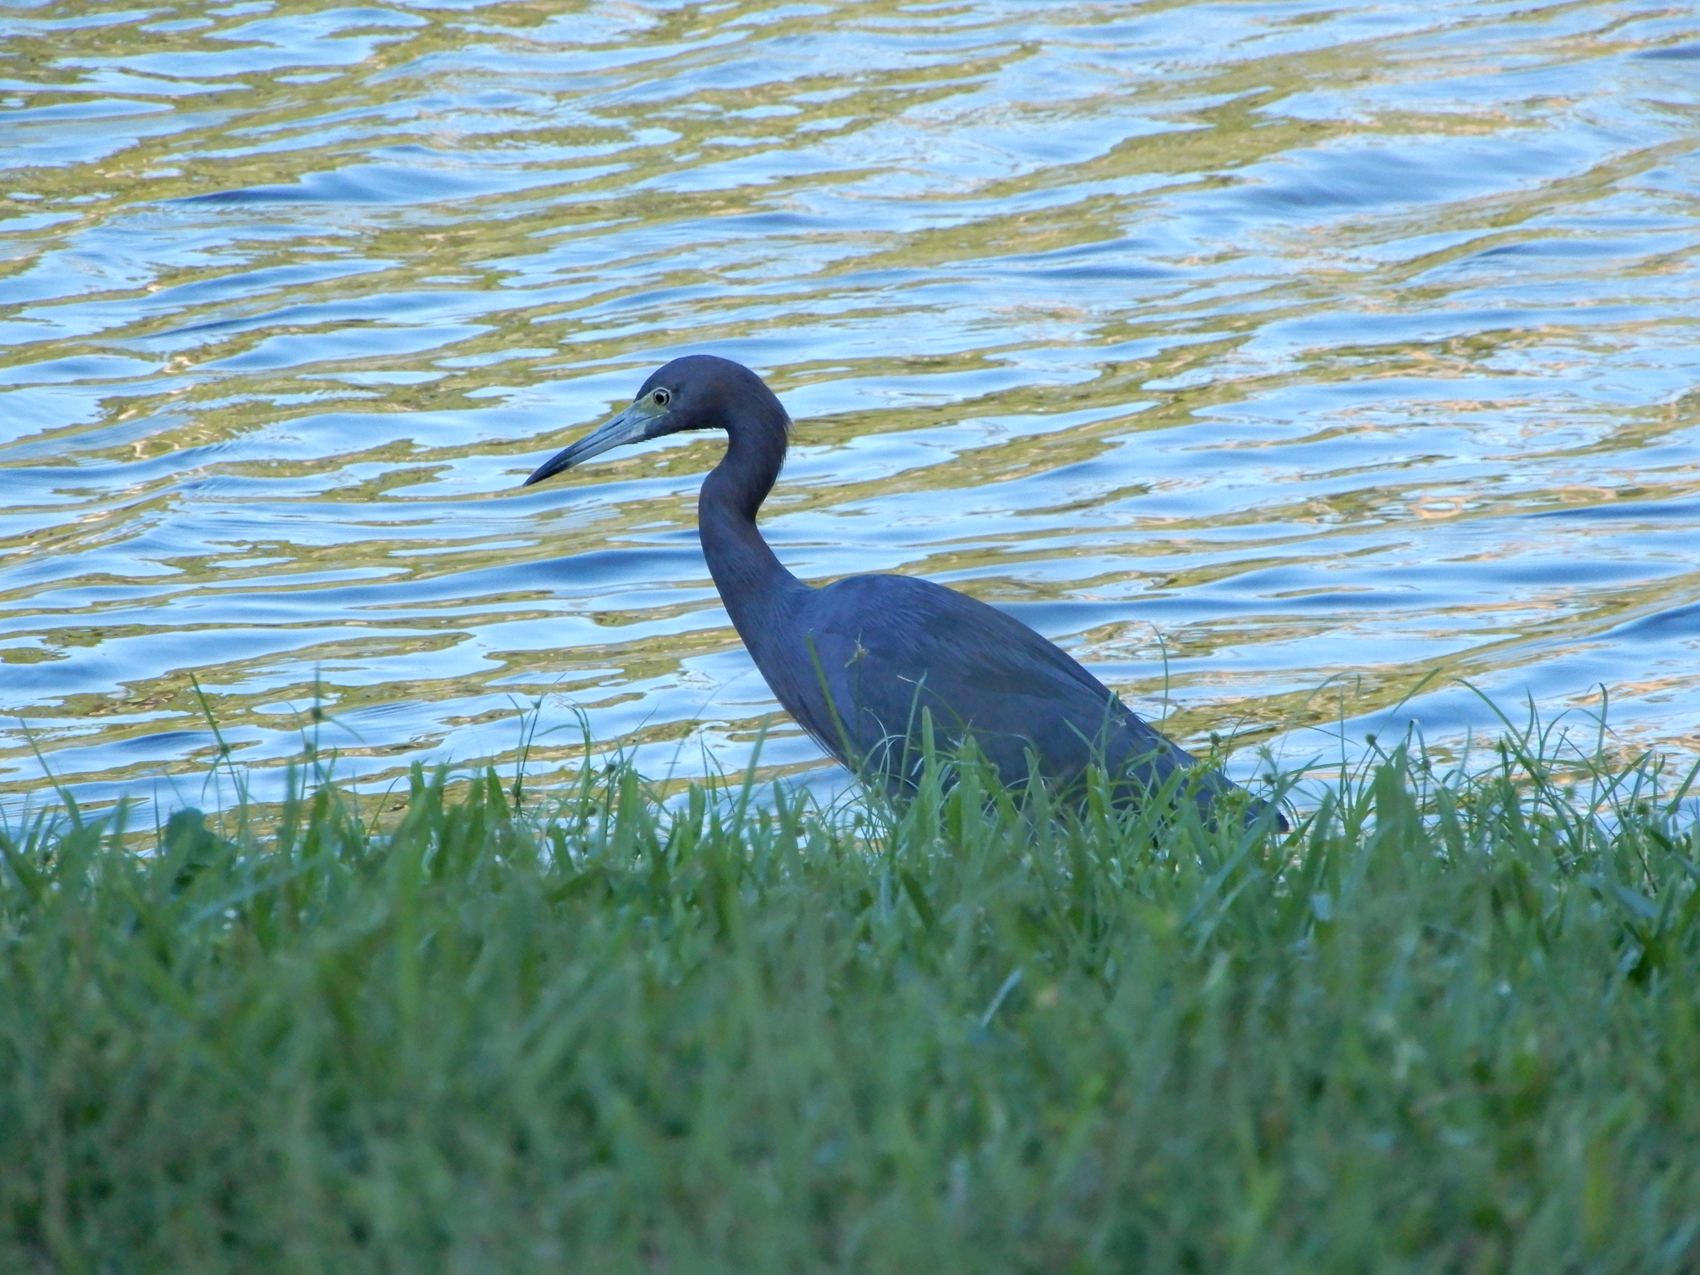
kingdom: Animalia
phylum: Chordata
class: Aves
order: Pelecaniformes
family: Ardeidae
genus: Egretta
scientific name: Egretta caerulea
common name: Little blue heron
